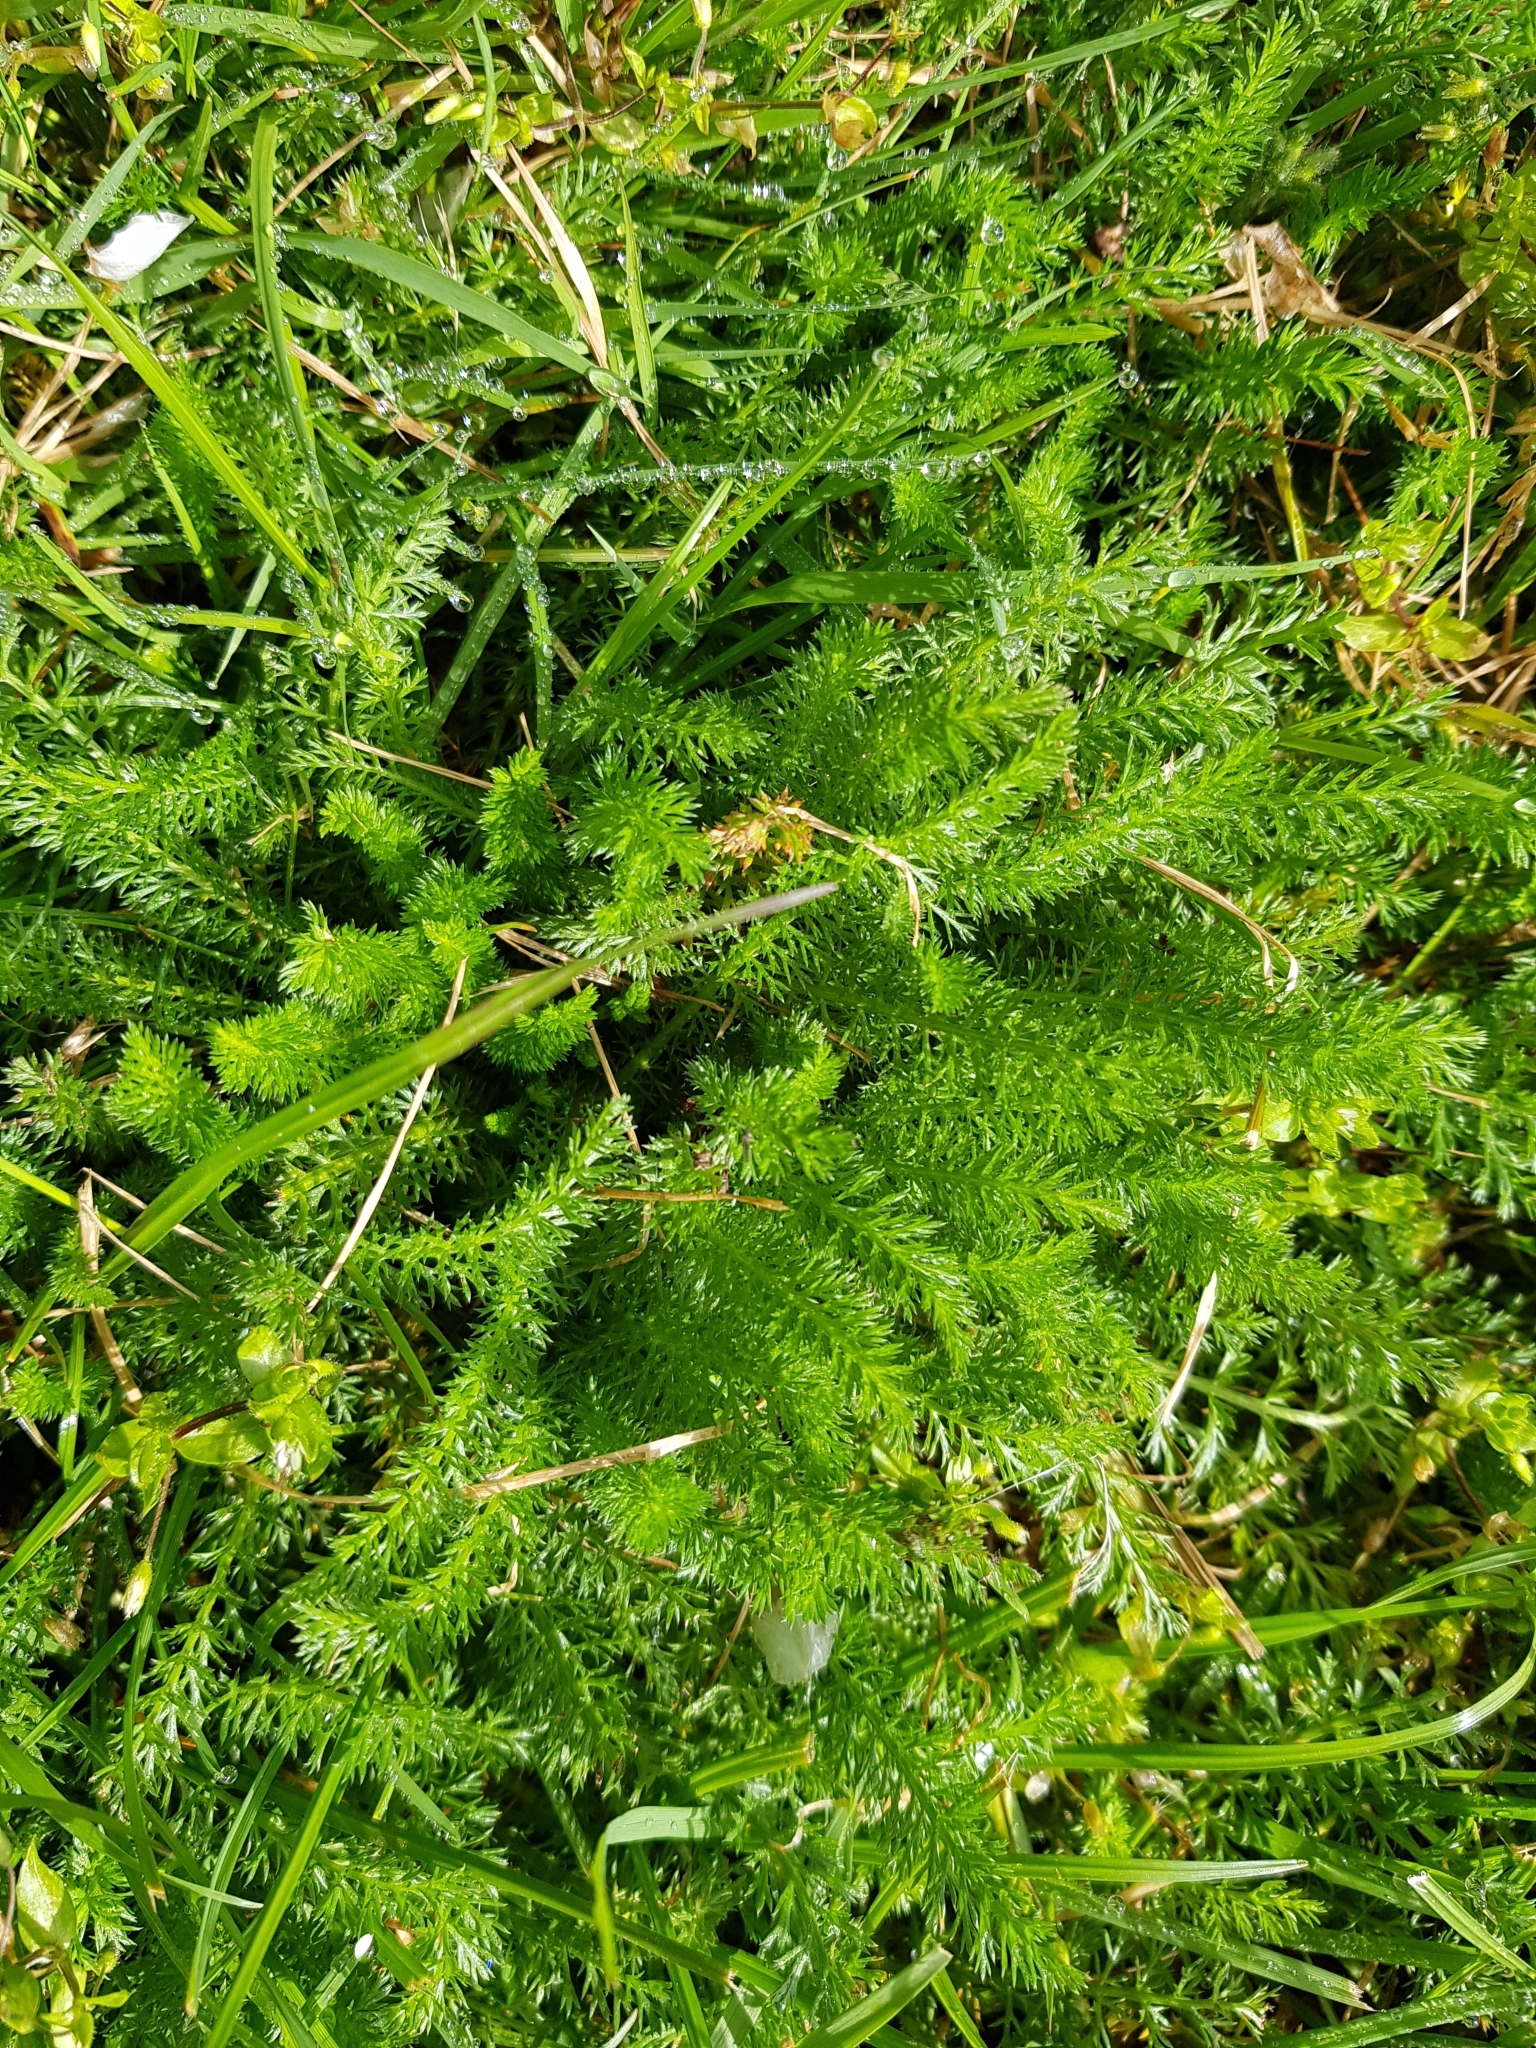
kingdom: Plantae
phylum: Tracheophyta
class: Magnoliopsida
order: Asterales
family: Asteraceae
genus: Achillea
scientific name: Achillea millefolium
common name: Yarrow
